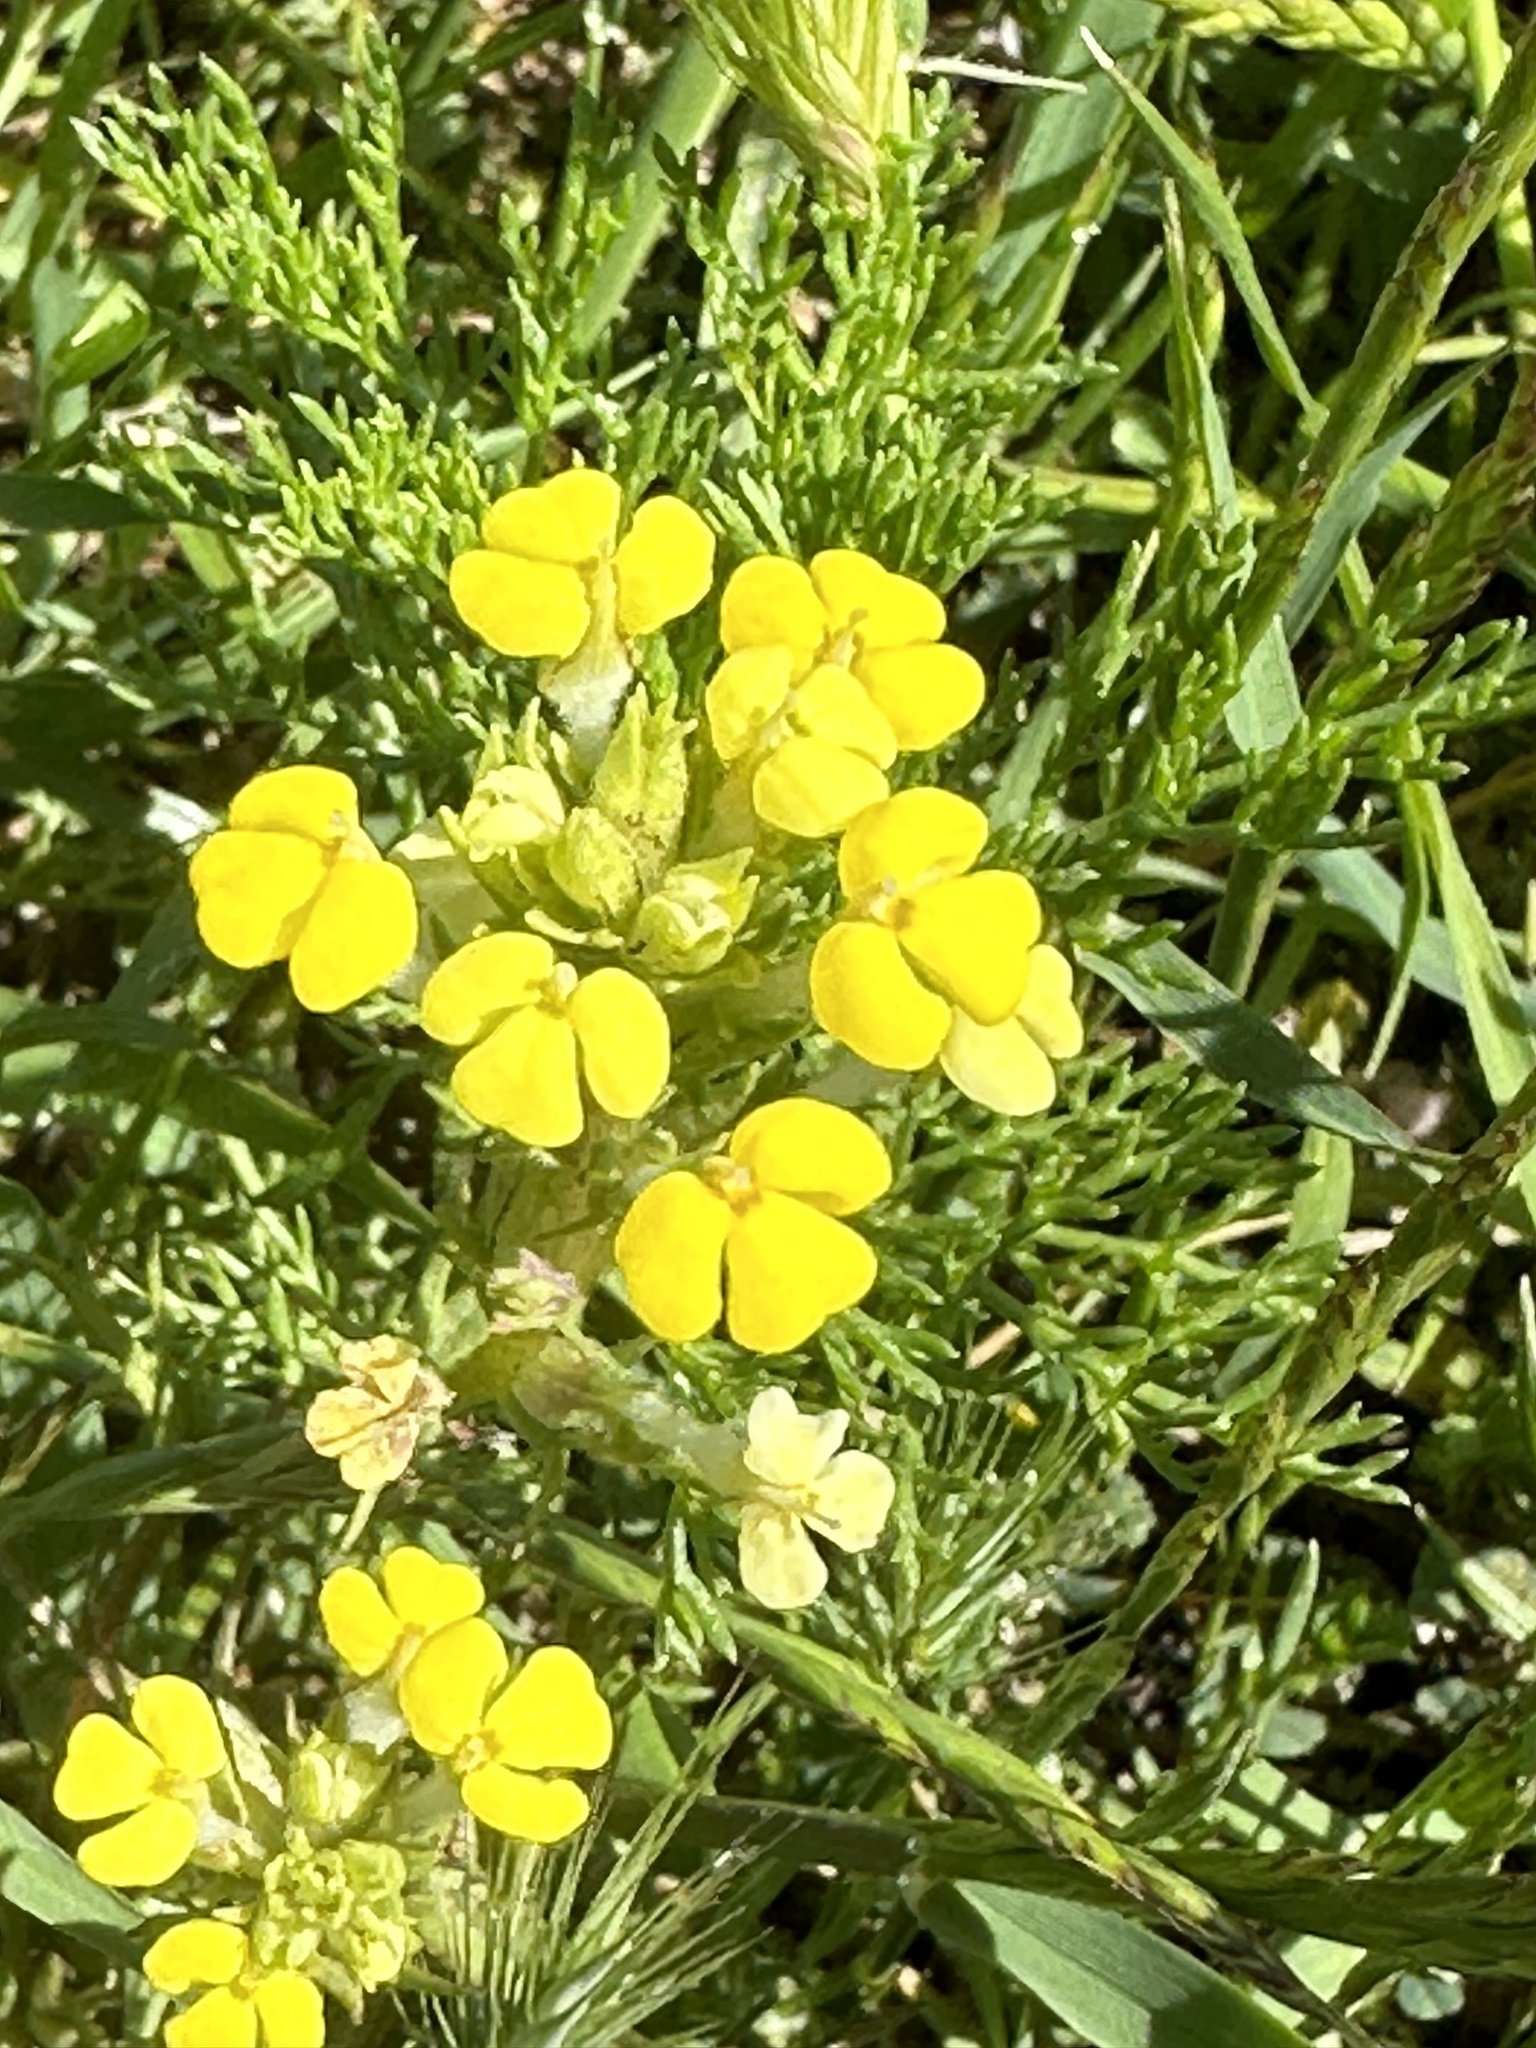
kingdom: Plantae
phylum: Tracheophyta
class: Magnoliopsida
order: Lamiales
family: Orobanchaceae
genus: Triphysaria
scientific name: Triphysaria versicolor
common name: Bearded false owl-clover
